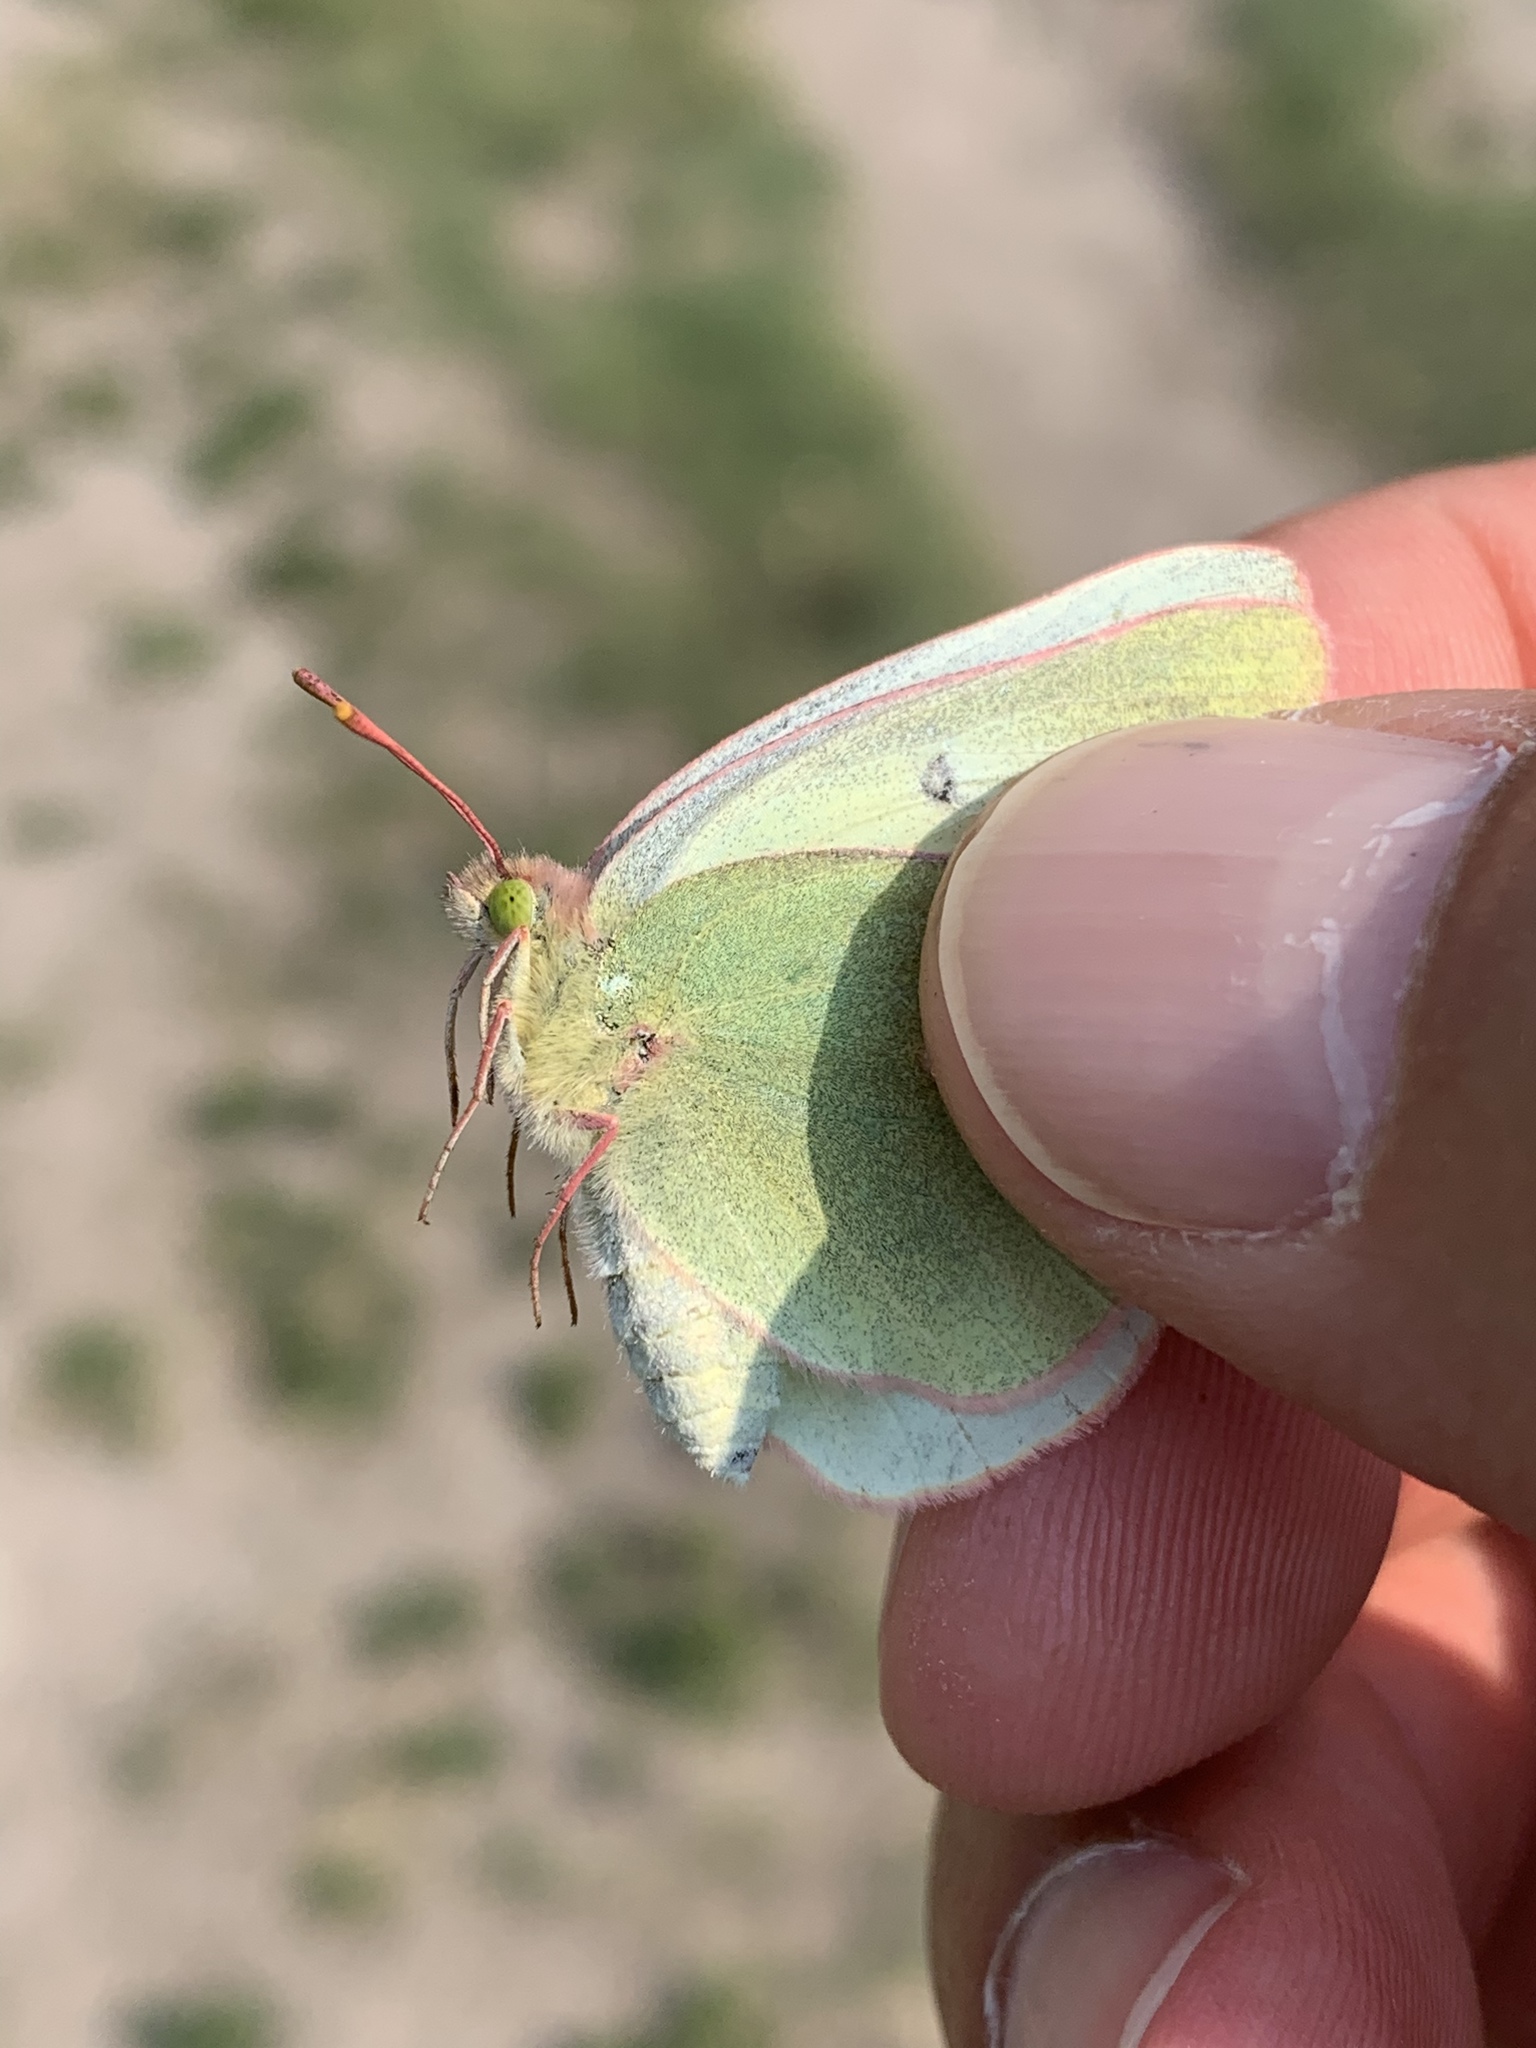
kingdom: Animalia
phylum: Arthropoda
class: Insecta
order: Lepidoptera
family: Pieridae
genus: Colias
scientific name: Colias christina
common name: Christina sulphur
